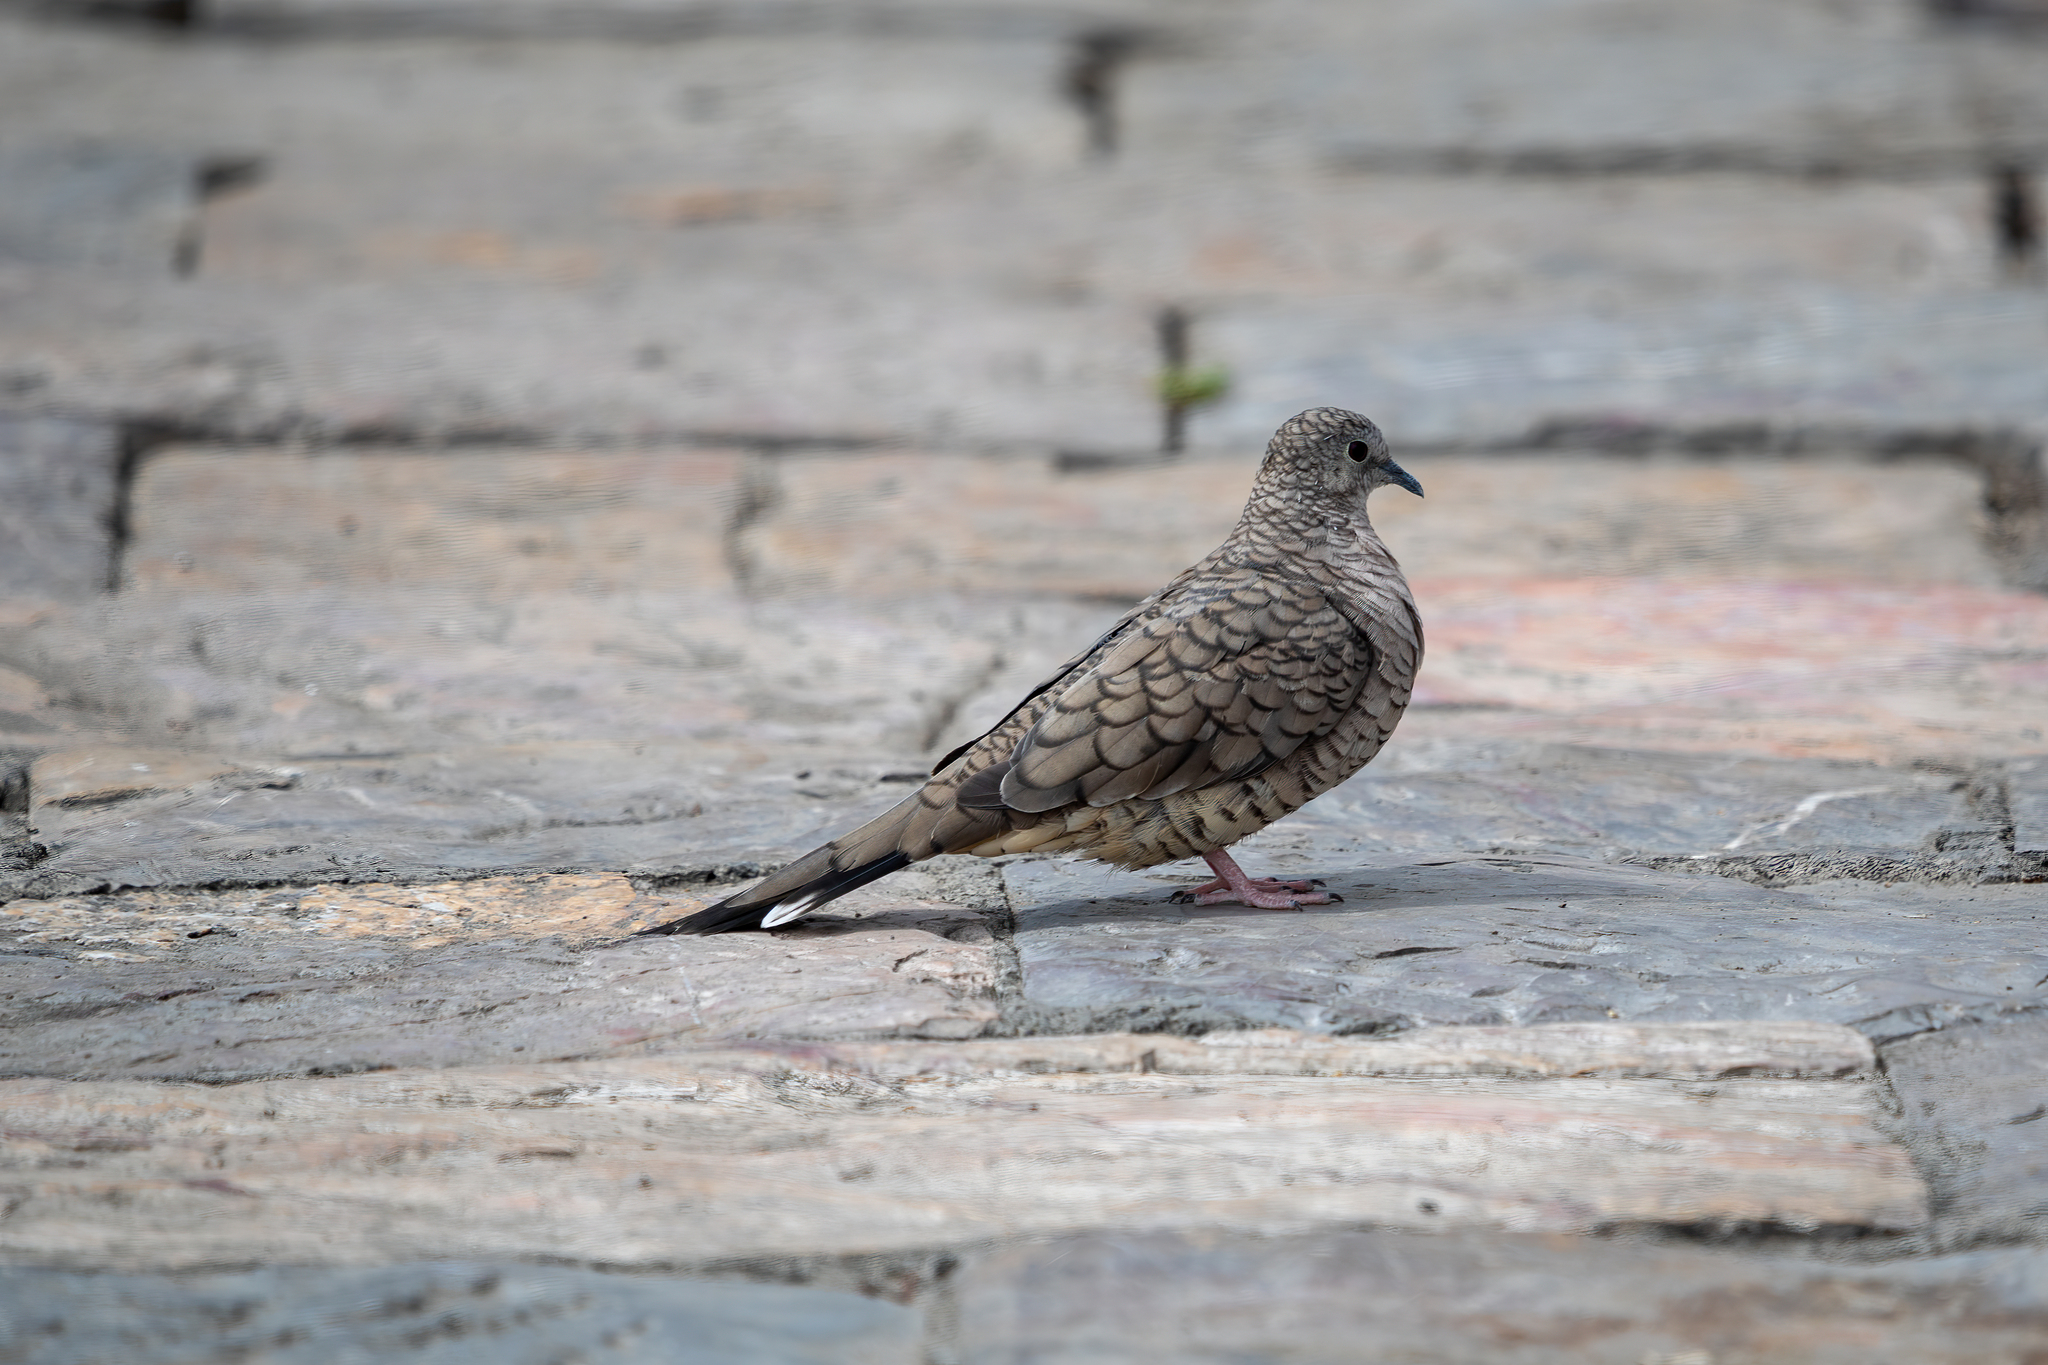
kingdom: Animalia
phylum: Chordata
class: Aves
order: Columbiformes
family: Columbidae
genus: Columbina
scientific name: Columbina inca
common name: Inca dove
